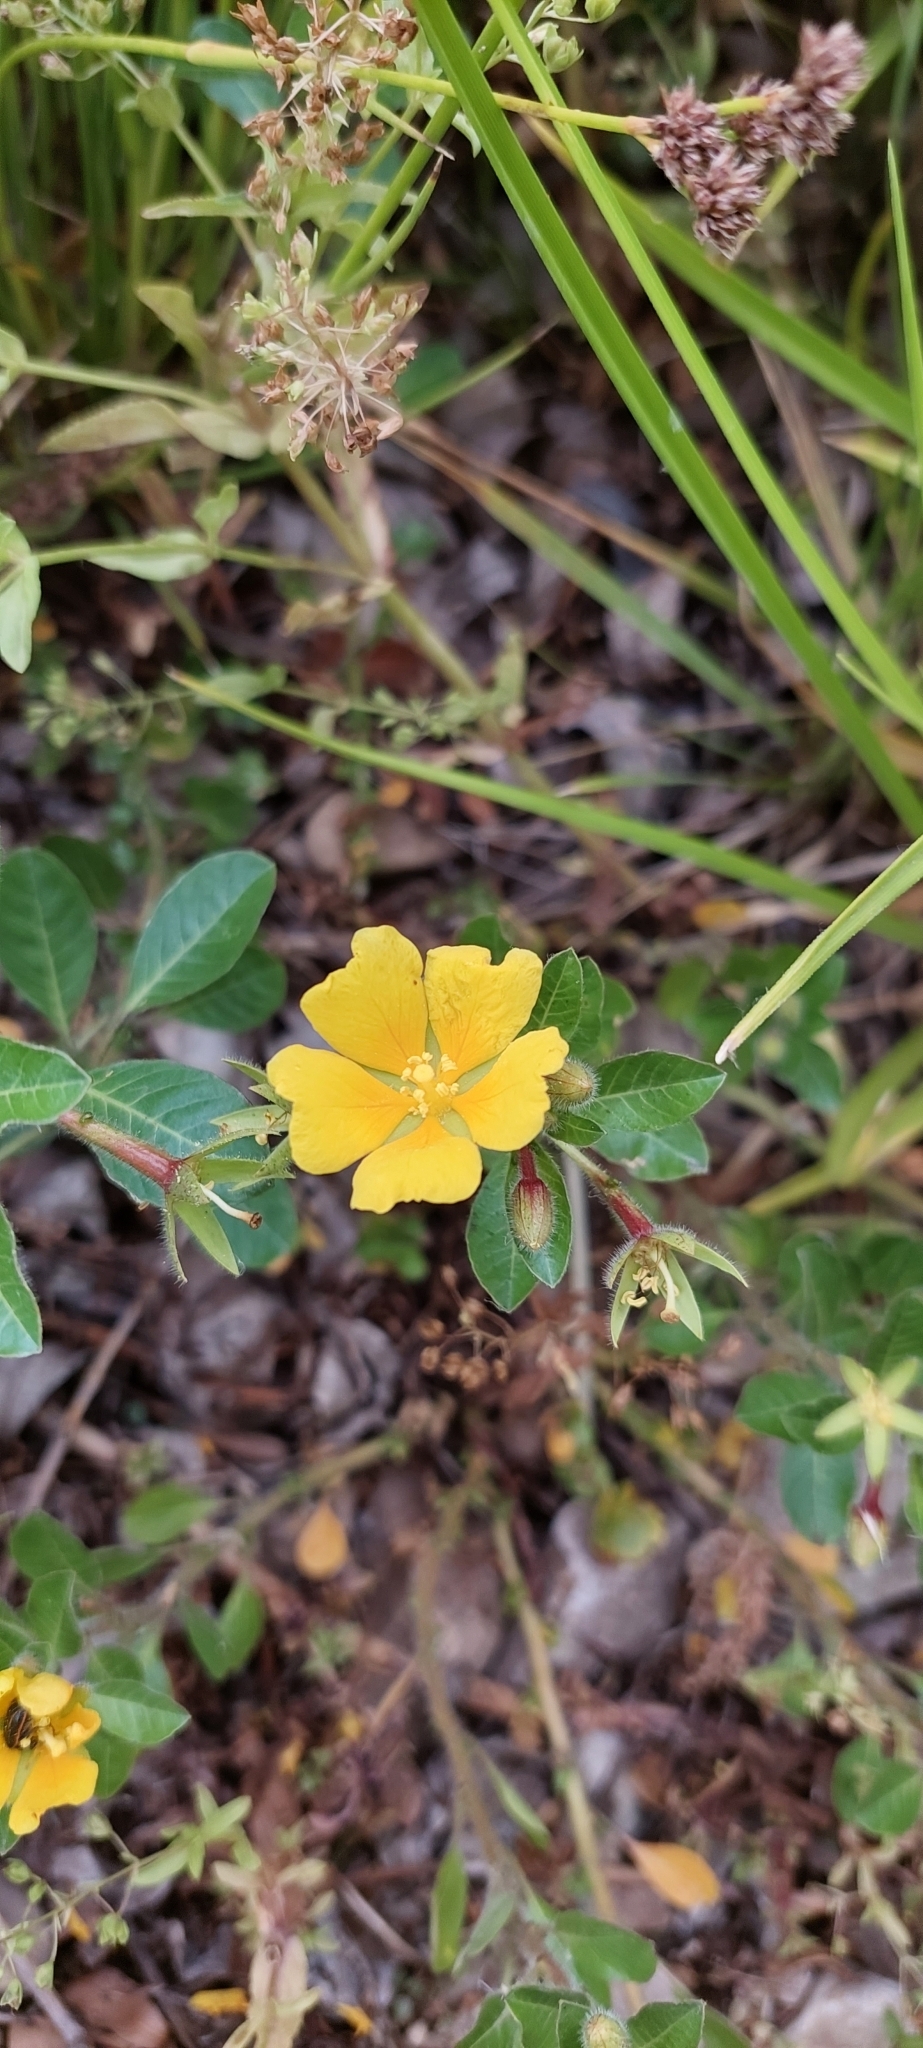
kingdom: Plantae
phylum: Tracheophyta
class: Magnoliopsida
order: Myrtales
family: Onagraceae
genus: Ludwigia
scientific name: Ludwigia peploides
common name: Floating primrose-willow
